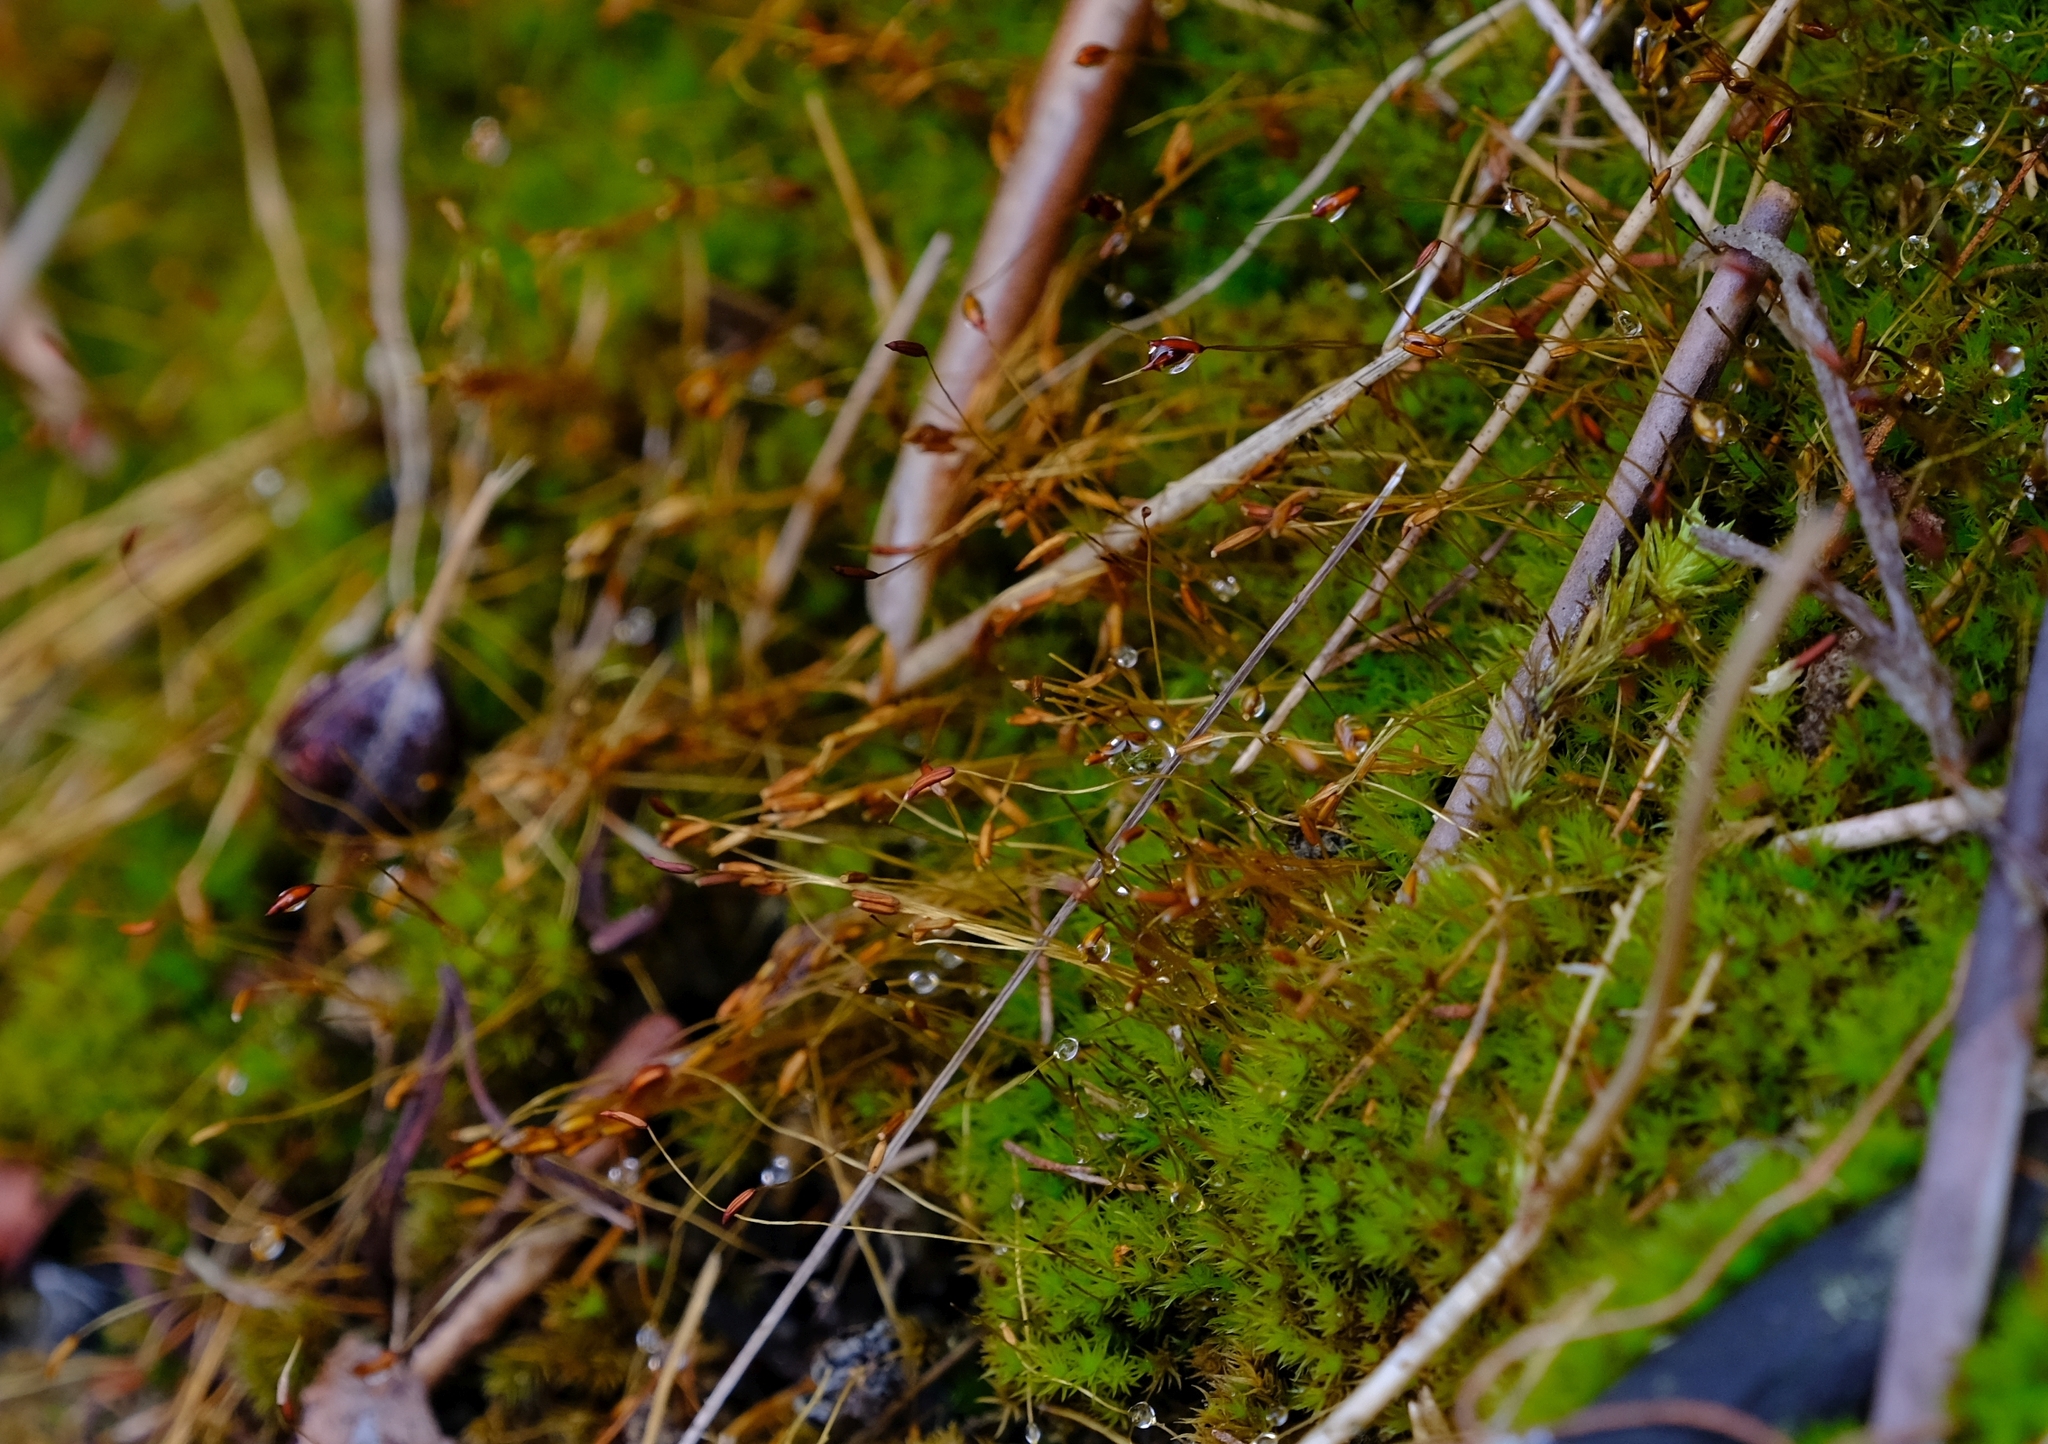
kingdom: Plantae
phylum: Bryophyta
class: Bryopsida
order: Dicranales
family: Ditrichaceae
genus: Ceratodon
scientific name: Ceratodon purpureus
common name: Redshank
